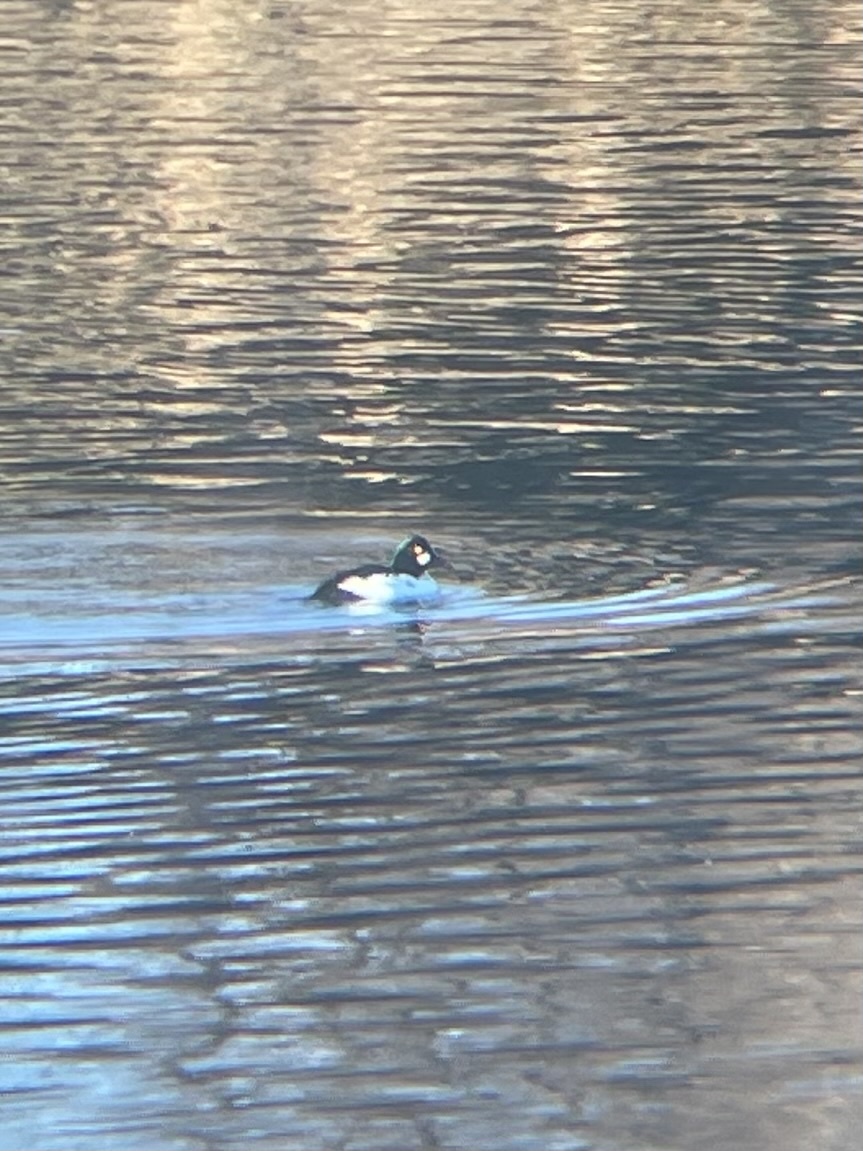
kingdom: Animalia
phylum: Chordata
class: Aves
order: Anseriformes
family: Anatidae
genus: Bucephala
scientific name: Bucephala clangula
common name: Common goldeneye
